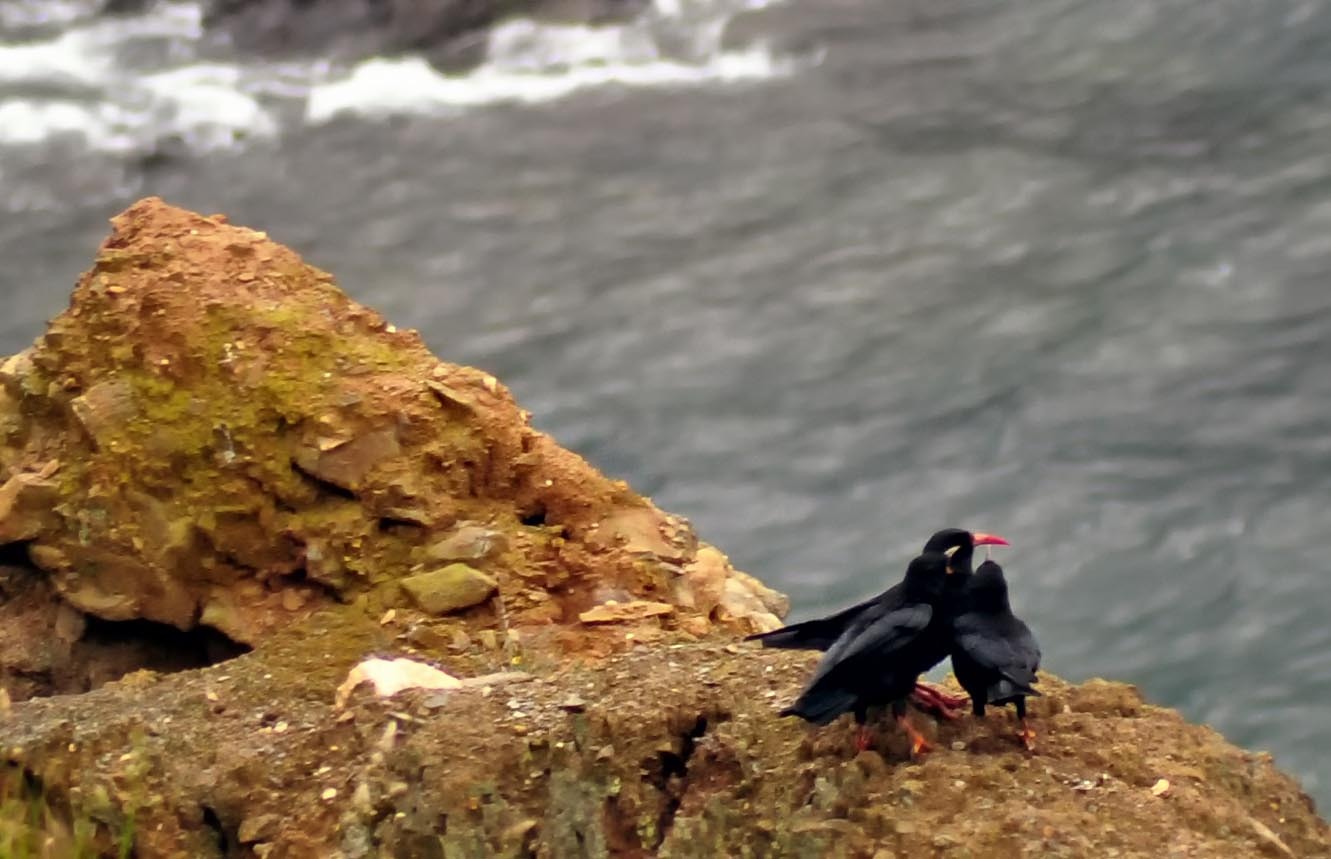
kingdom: Animalia
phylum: Chordata
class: Aves
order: Passeriformes
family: Corvidae
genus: Pyrrhocorax
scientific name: Pyrrhocorax pyrrhocorax
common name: Red-billed chough
